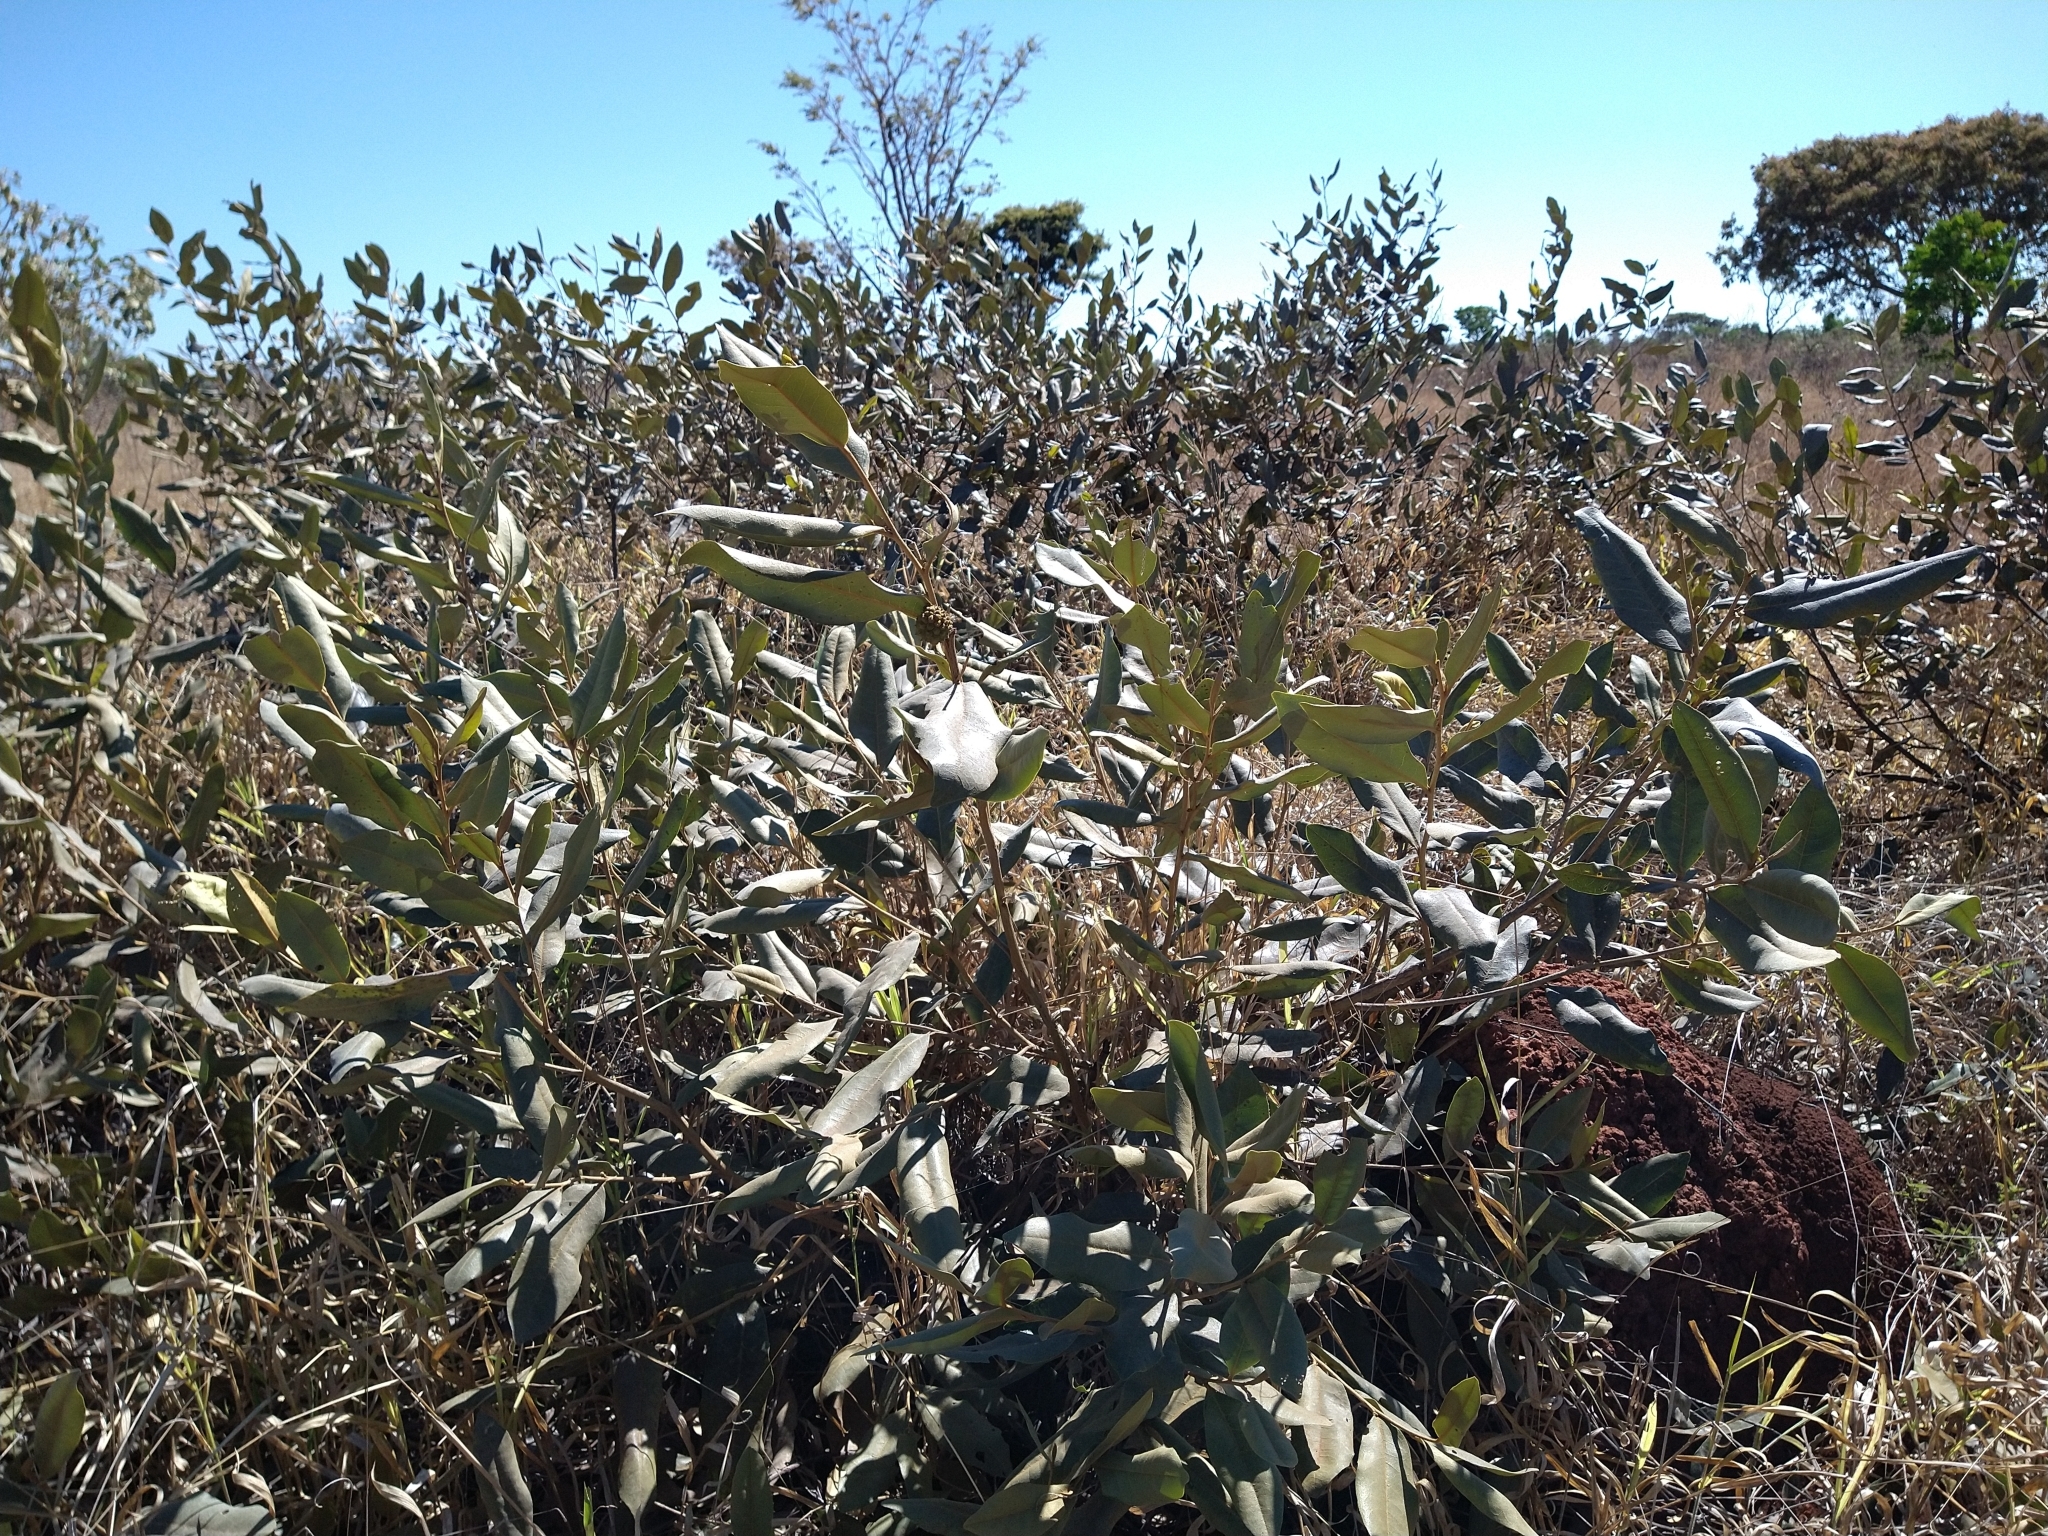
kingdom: Plantae
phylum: Tracheophyta
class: Magnoliopsida
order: Magnoliales
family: Annonaceae
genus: Duguetia
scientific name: Duguetia furfuracea
